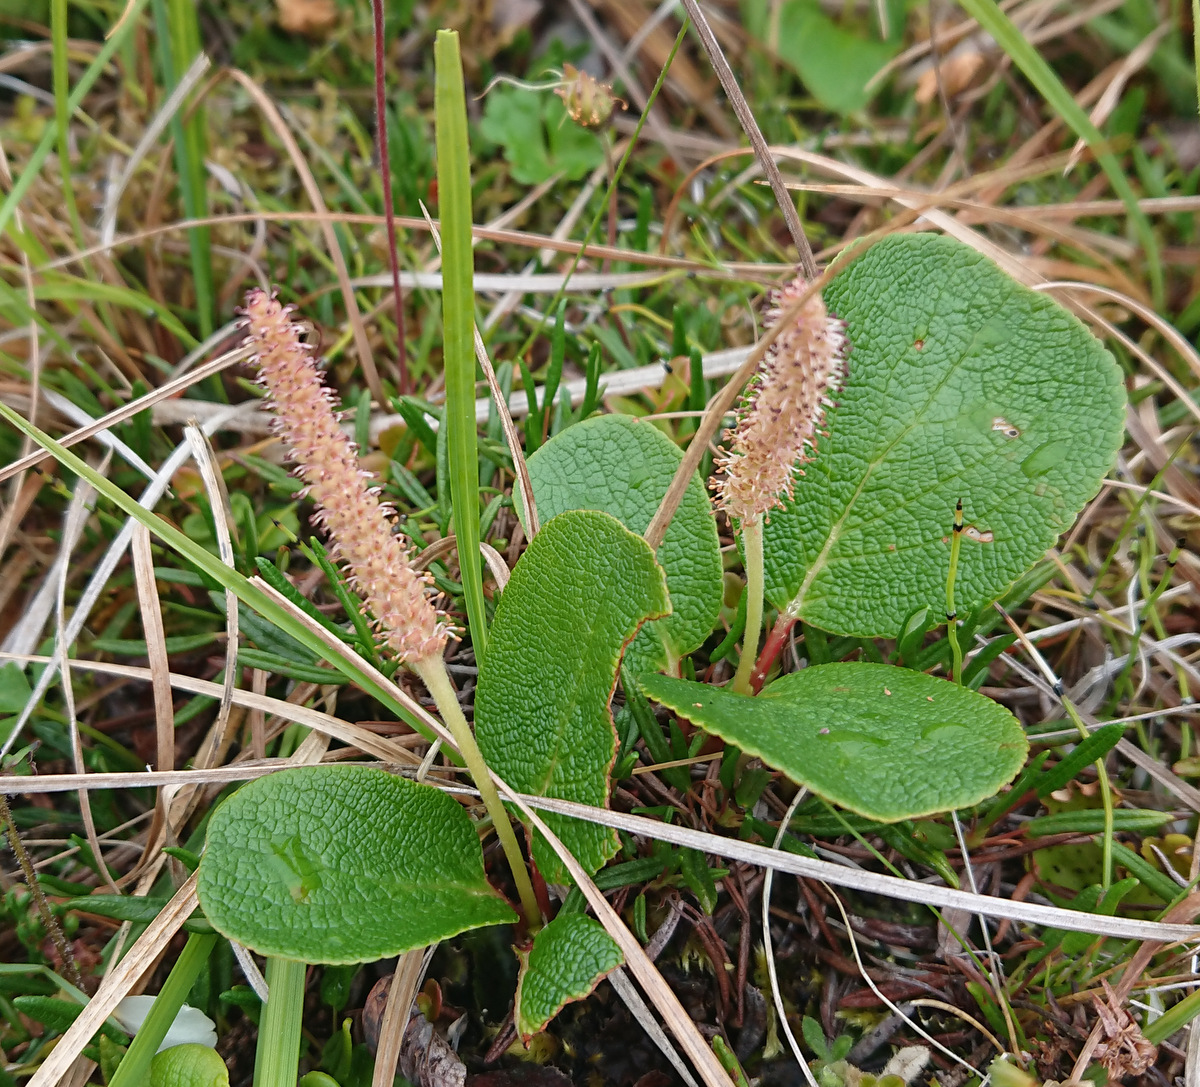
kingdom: Plantae
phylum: Tracheophyta
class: Magnoliopsida
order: Malpighiales
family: Salicaceae
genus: Salix
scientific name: Salix reticulata
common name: Net-leaved willow
